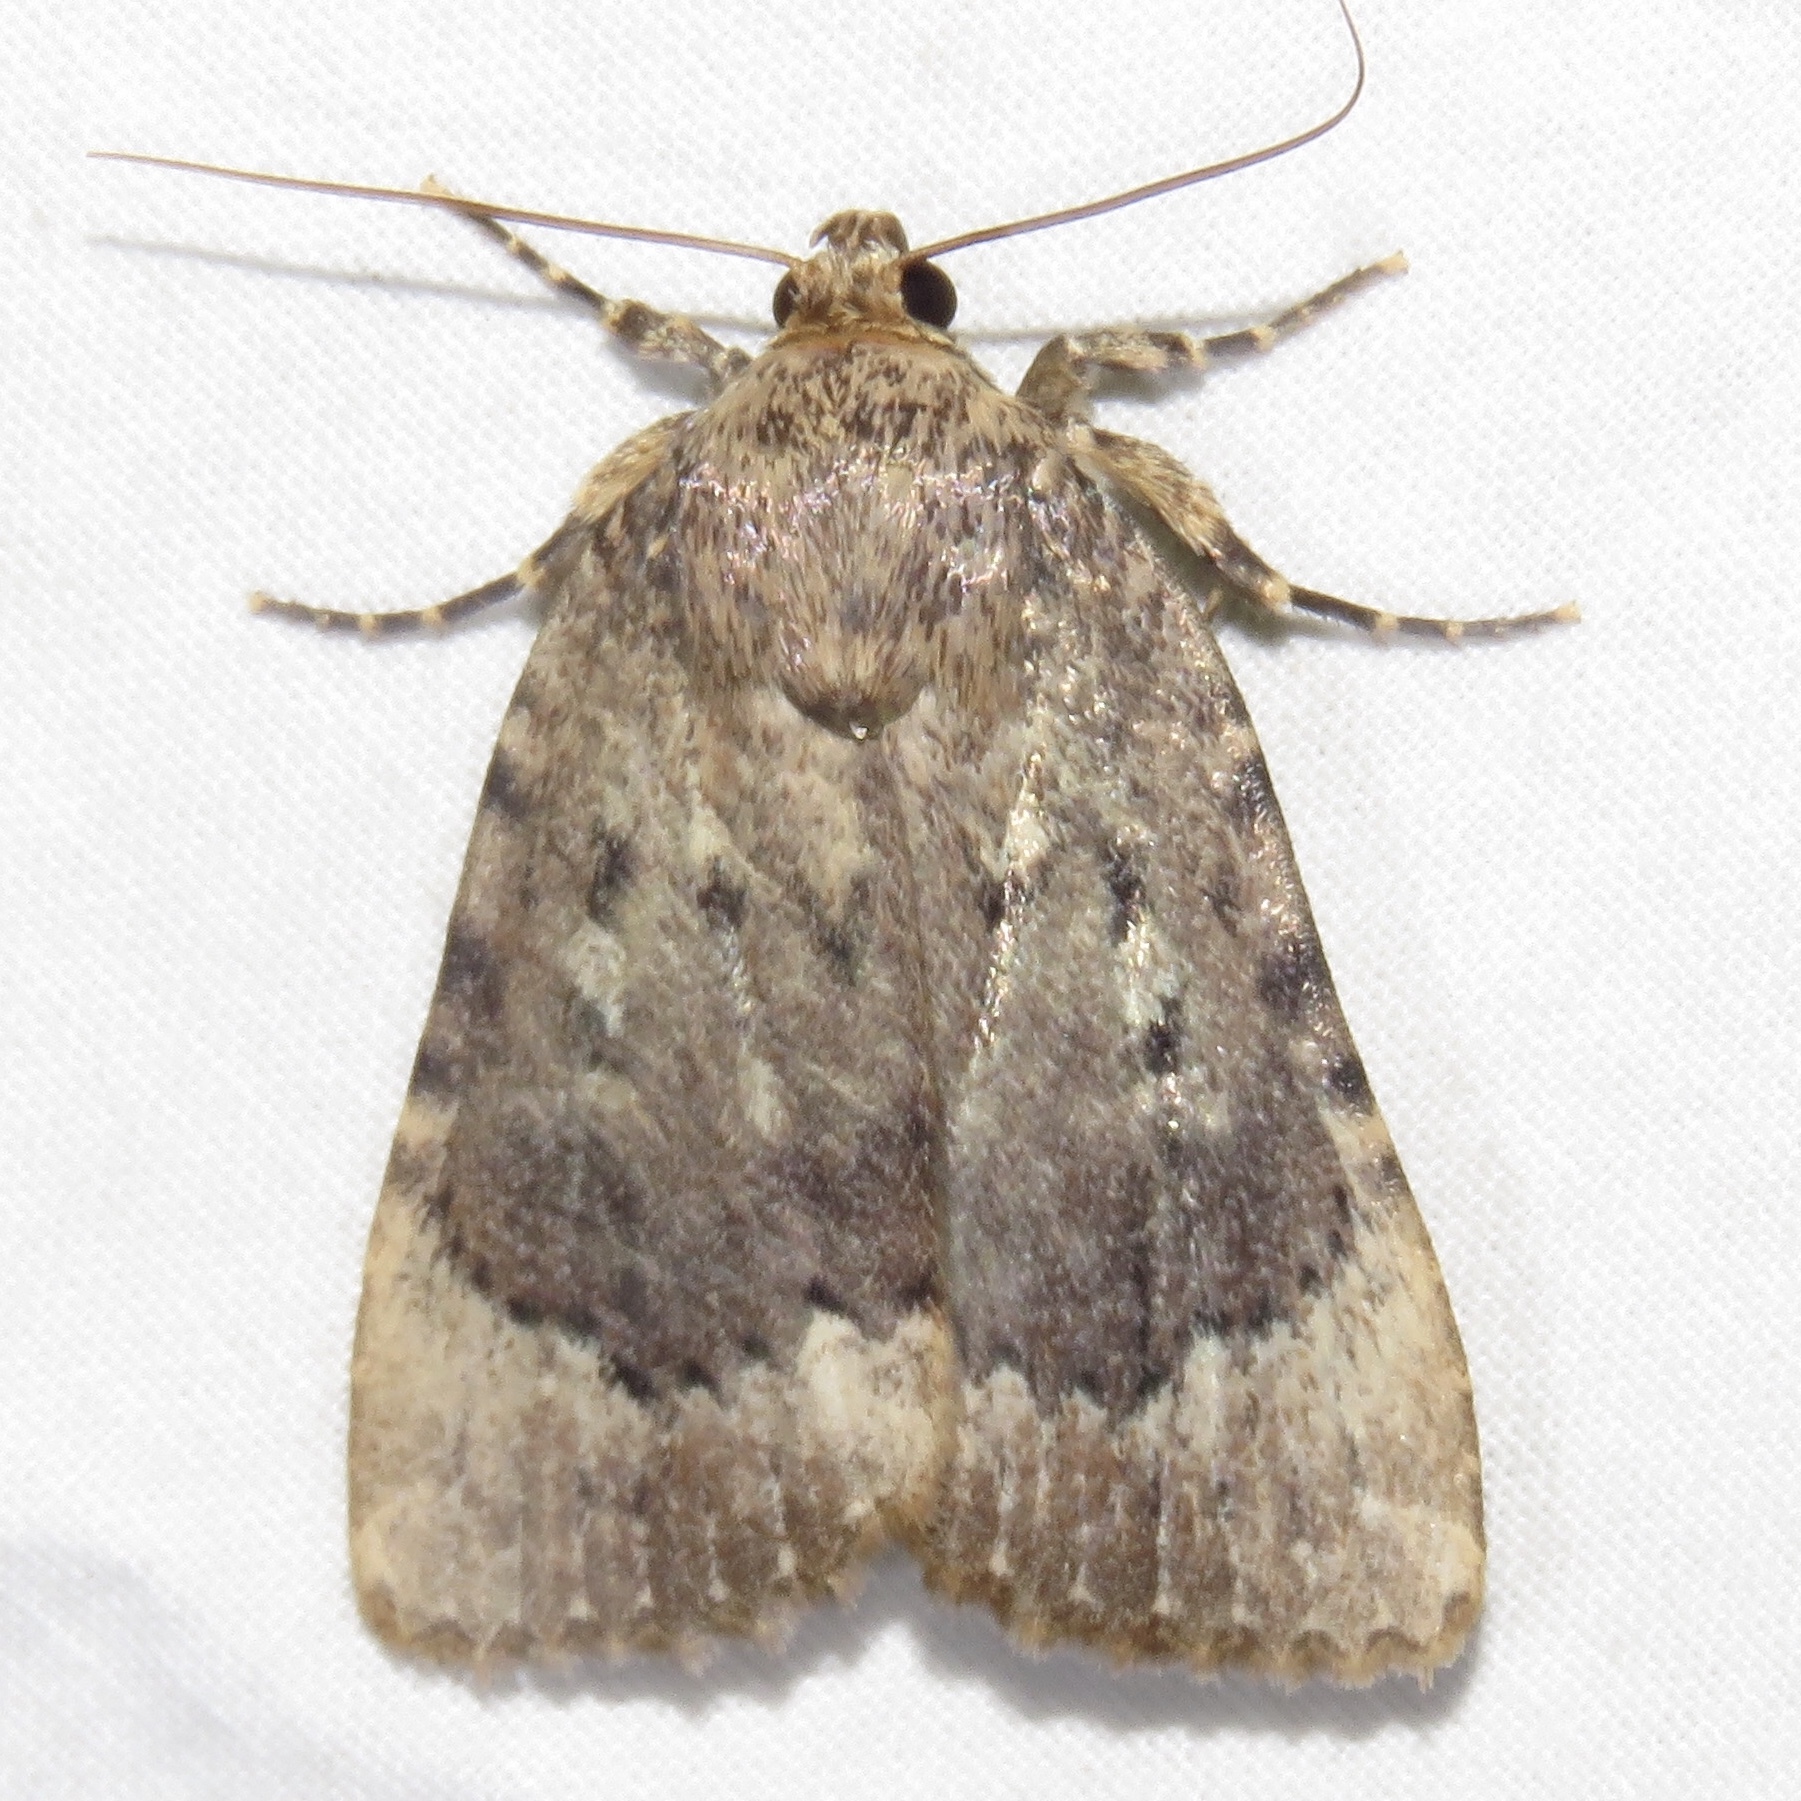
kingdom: Animalia
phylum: Arthropoda
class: Insecta
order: Lepidoptera
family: Noctuidae
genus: Amphipyra
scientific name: Amphipyra pyramidoides
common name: American copper underwing
